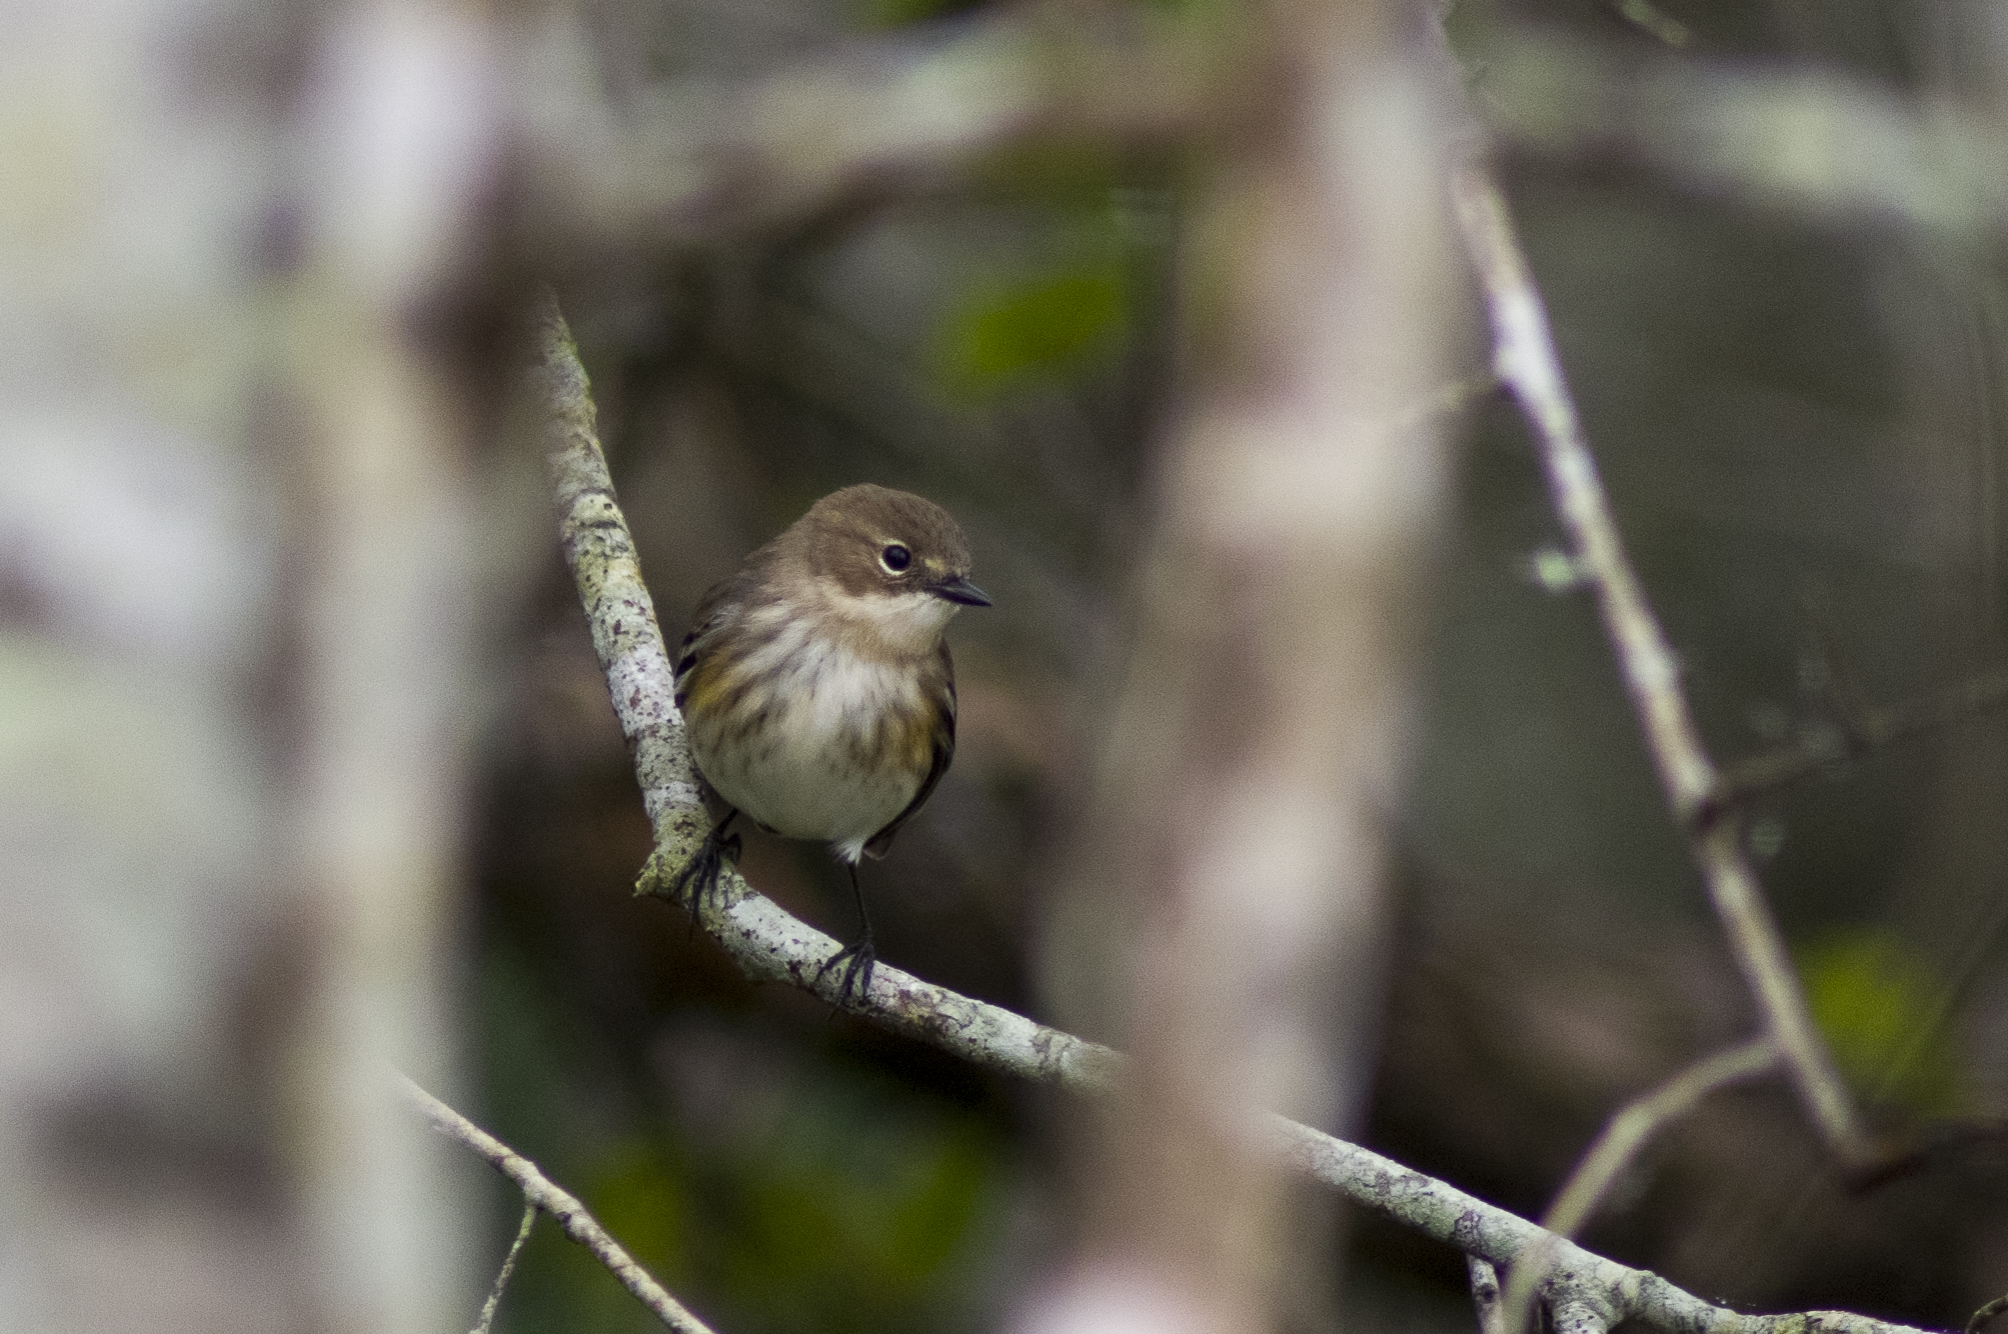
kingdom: Animalia
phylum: Chordata
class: Aves
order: Passeriformes
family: Parulidae
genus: Setophaga
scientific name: Setophaga coronata
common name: Myrtle warbler
